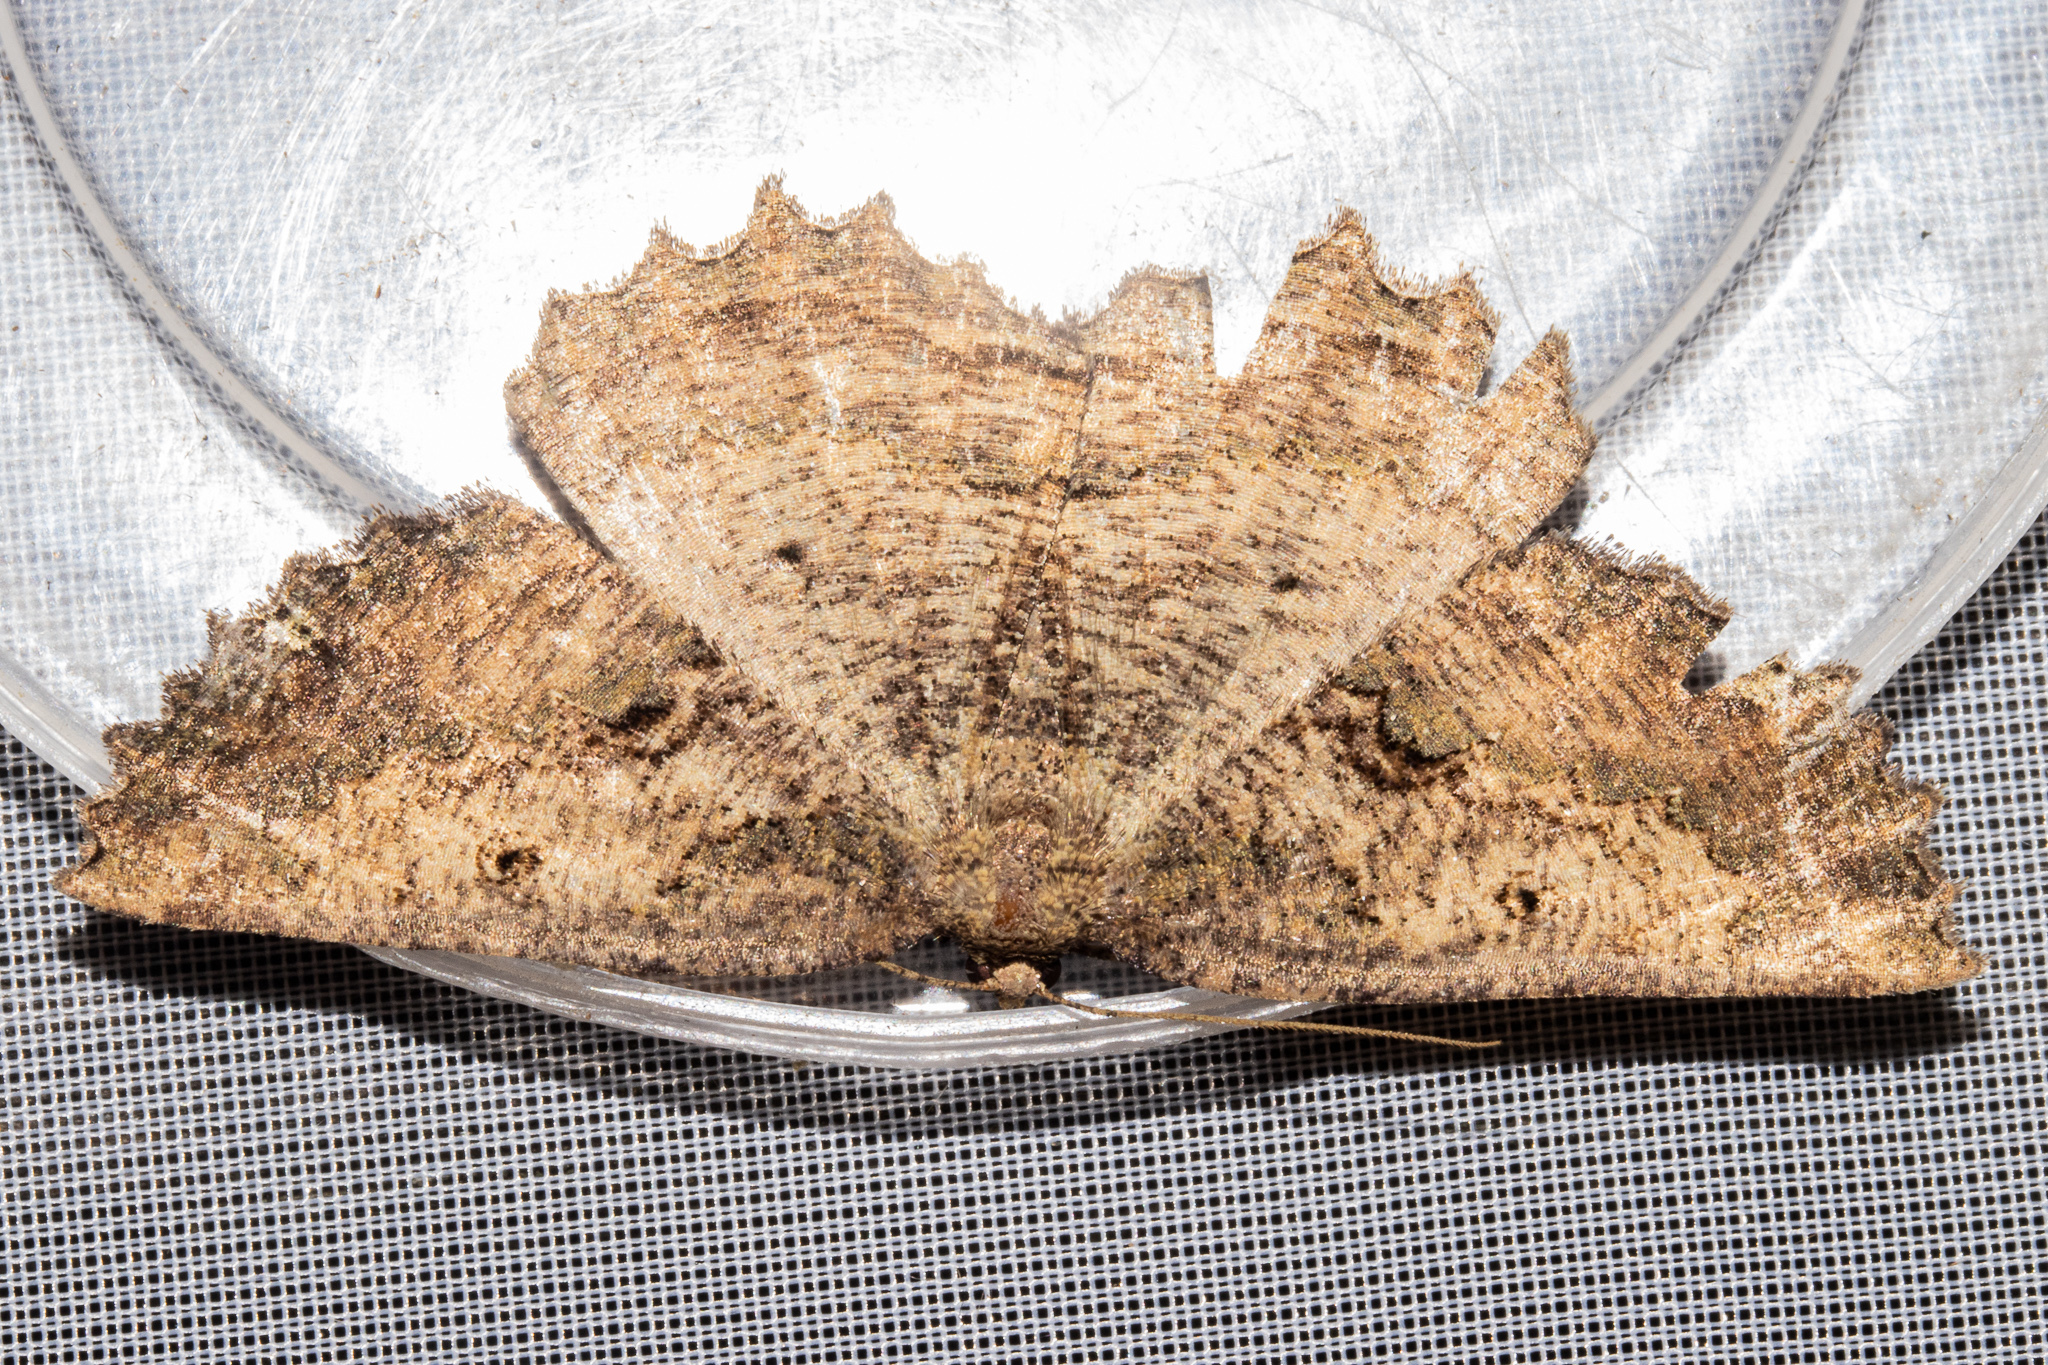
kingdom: Animalia
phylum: Arthropoda
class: Insecta
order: Lepidoptera
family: Geometridae
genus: Gellonia
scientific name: Gellonia pannularia
